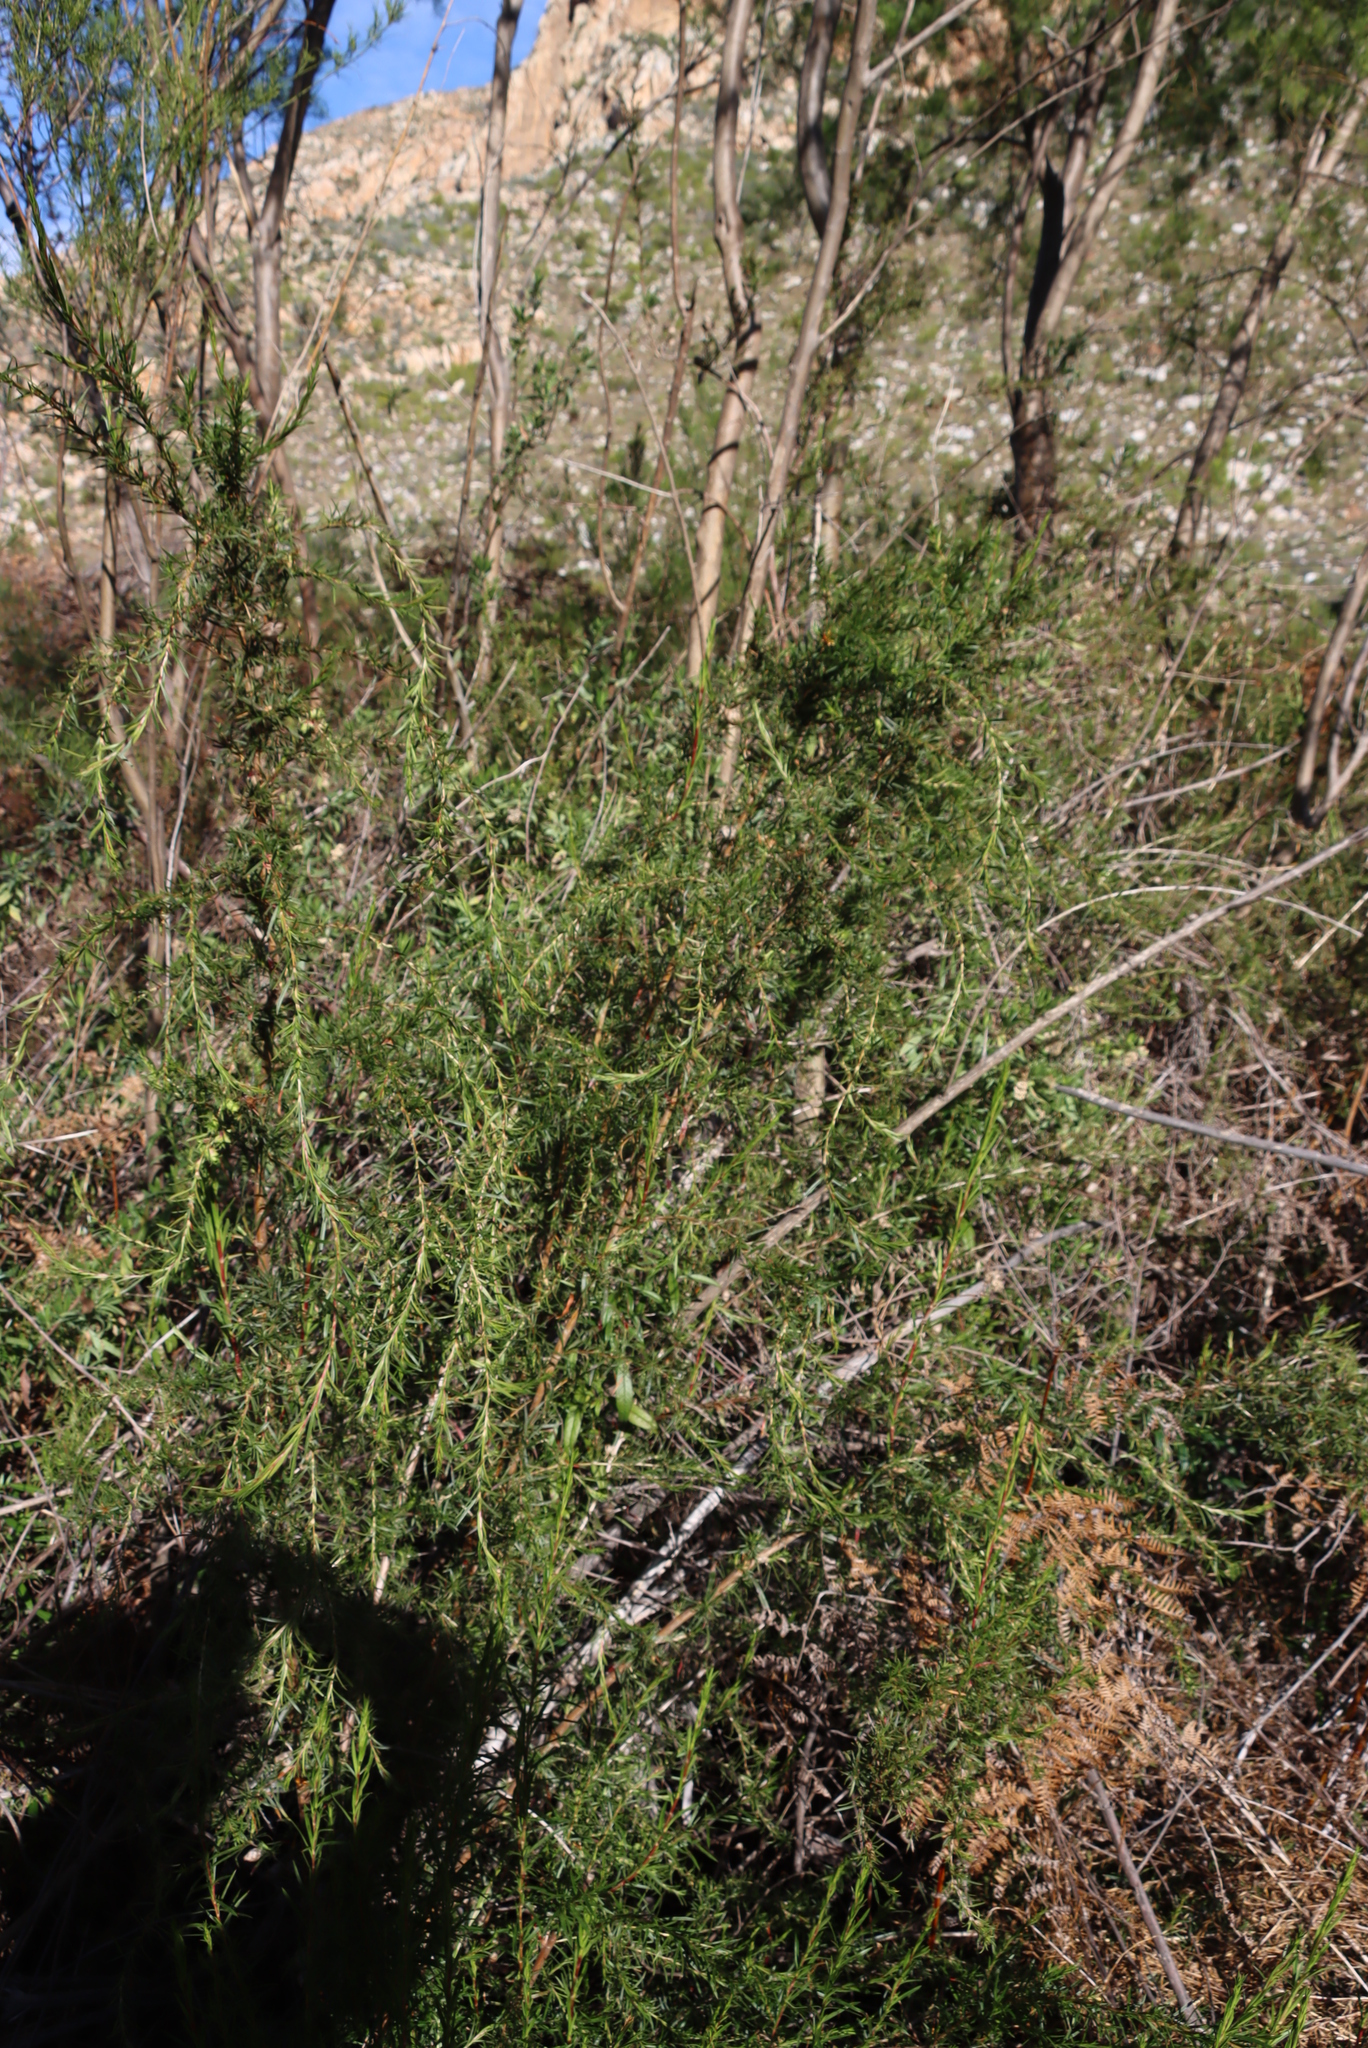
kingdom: Plantae
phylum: Tracheophyta
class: Magnoliopsida
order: Rosales
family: Rosaceae
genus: Cliffortia
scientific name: Cliffortia strobilifera
